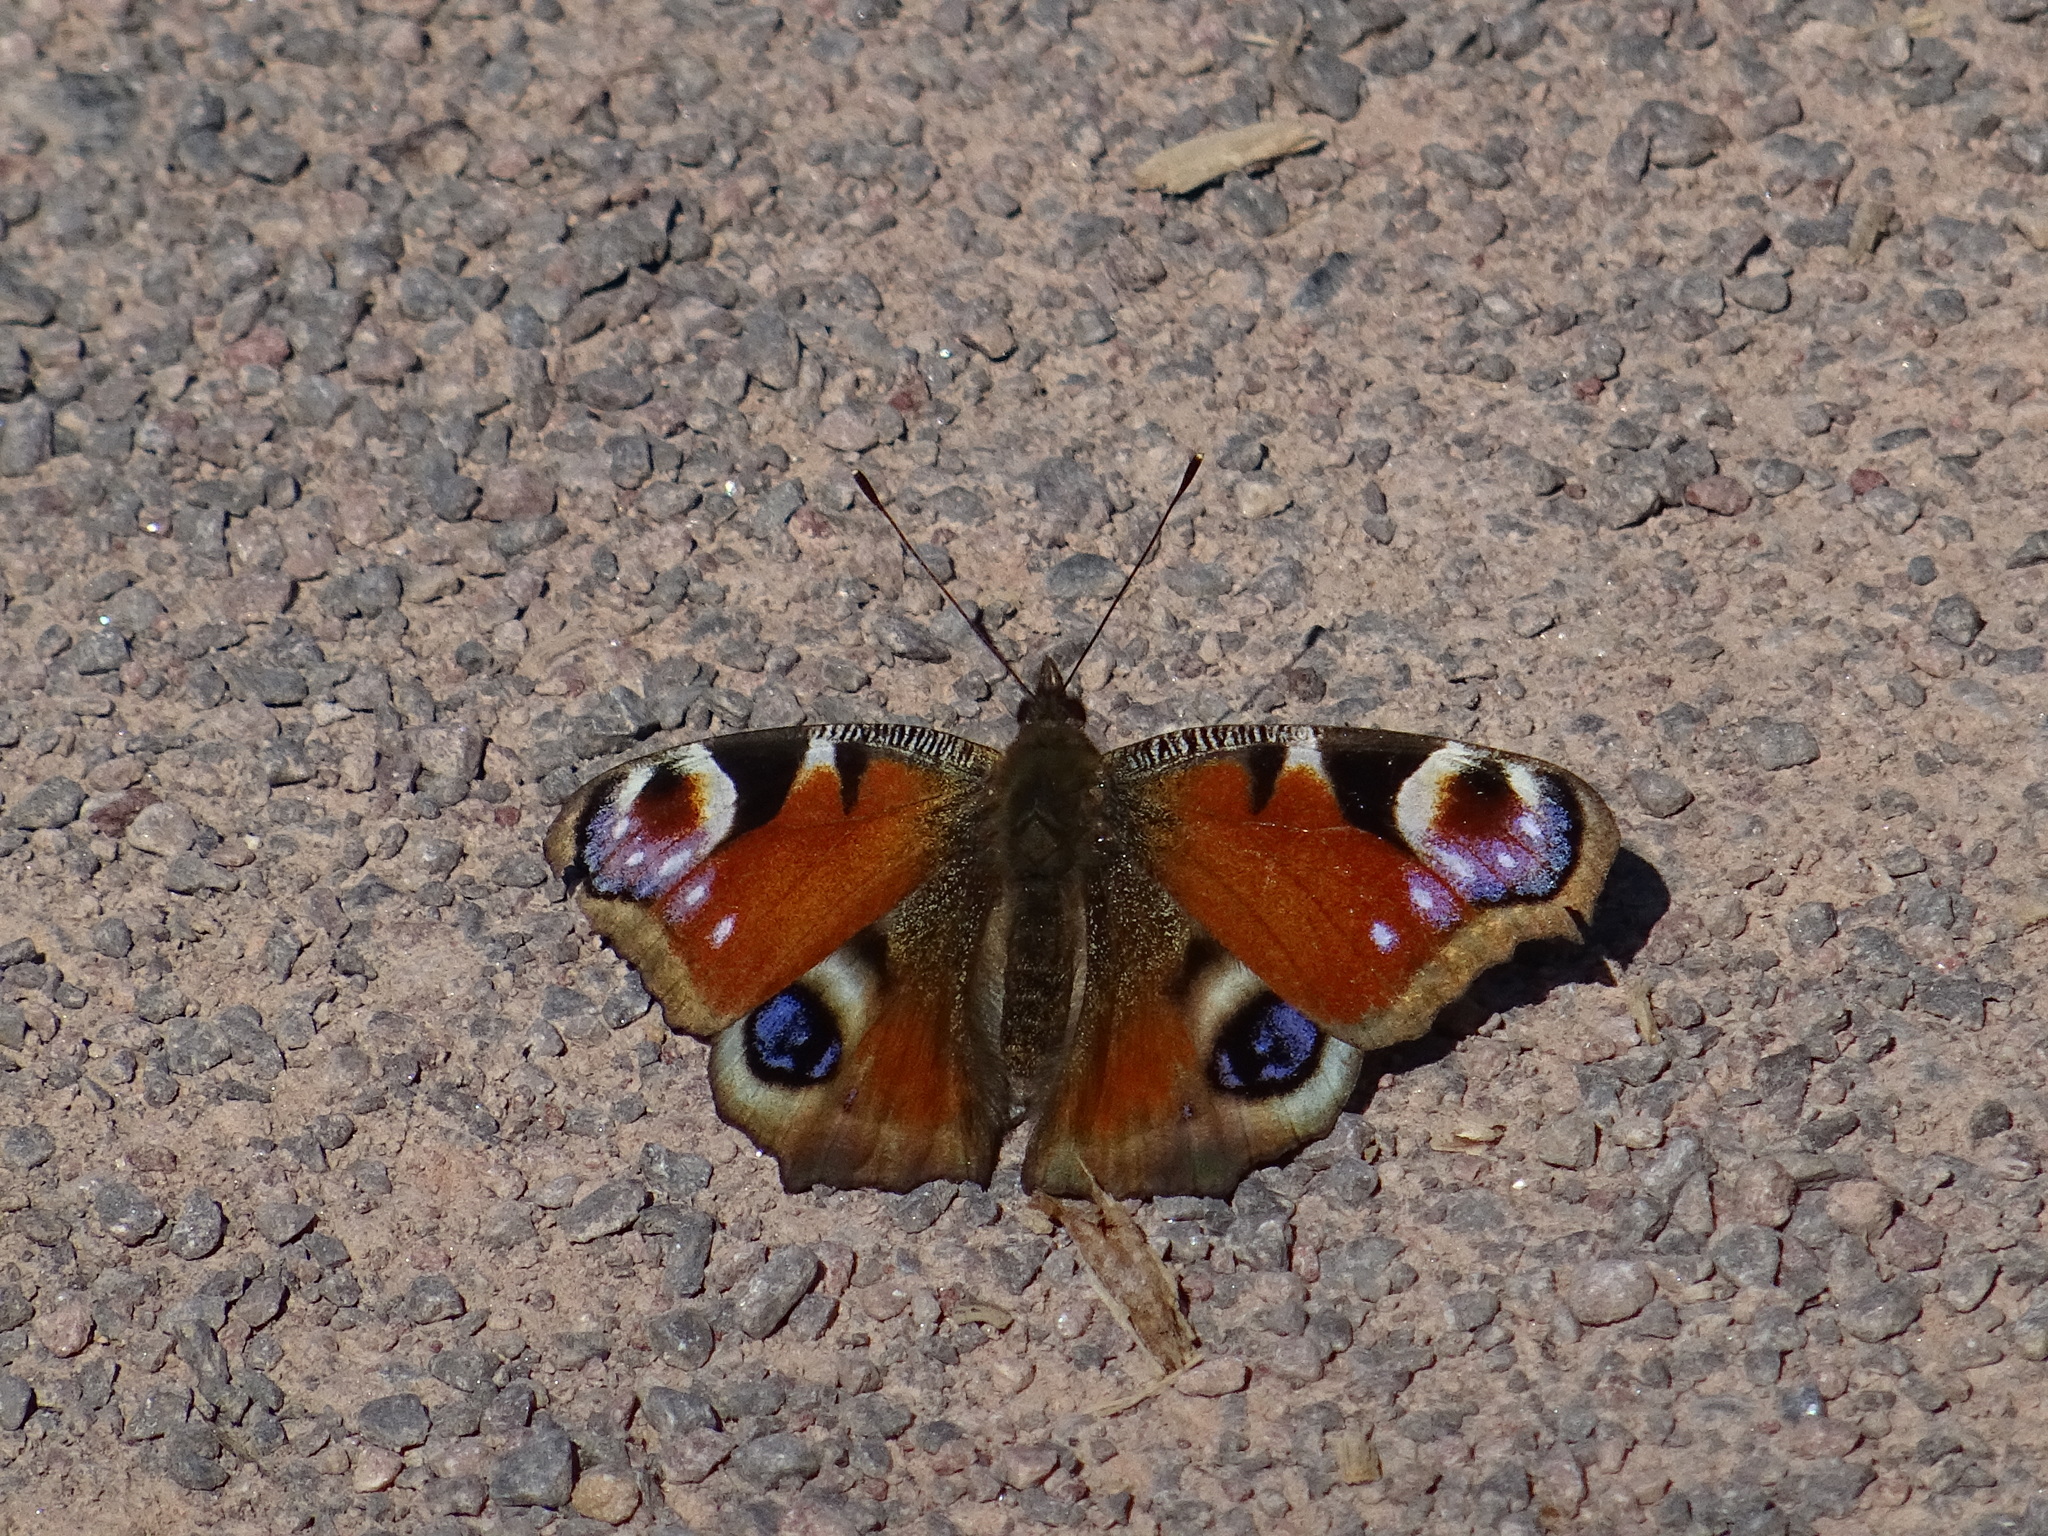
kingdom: Animalia
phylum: Arthropoda
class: Insecta
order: Lepidoptera
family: Nymphalidae
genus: Aglais
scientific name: Aglais io
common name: Peacock
